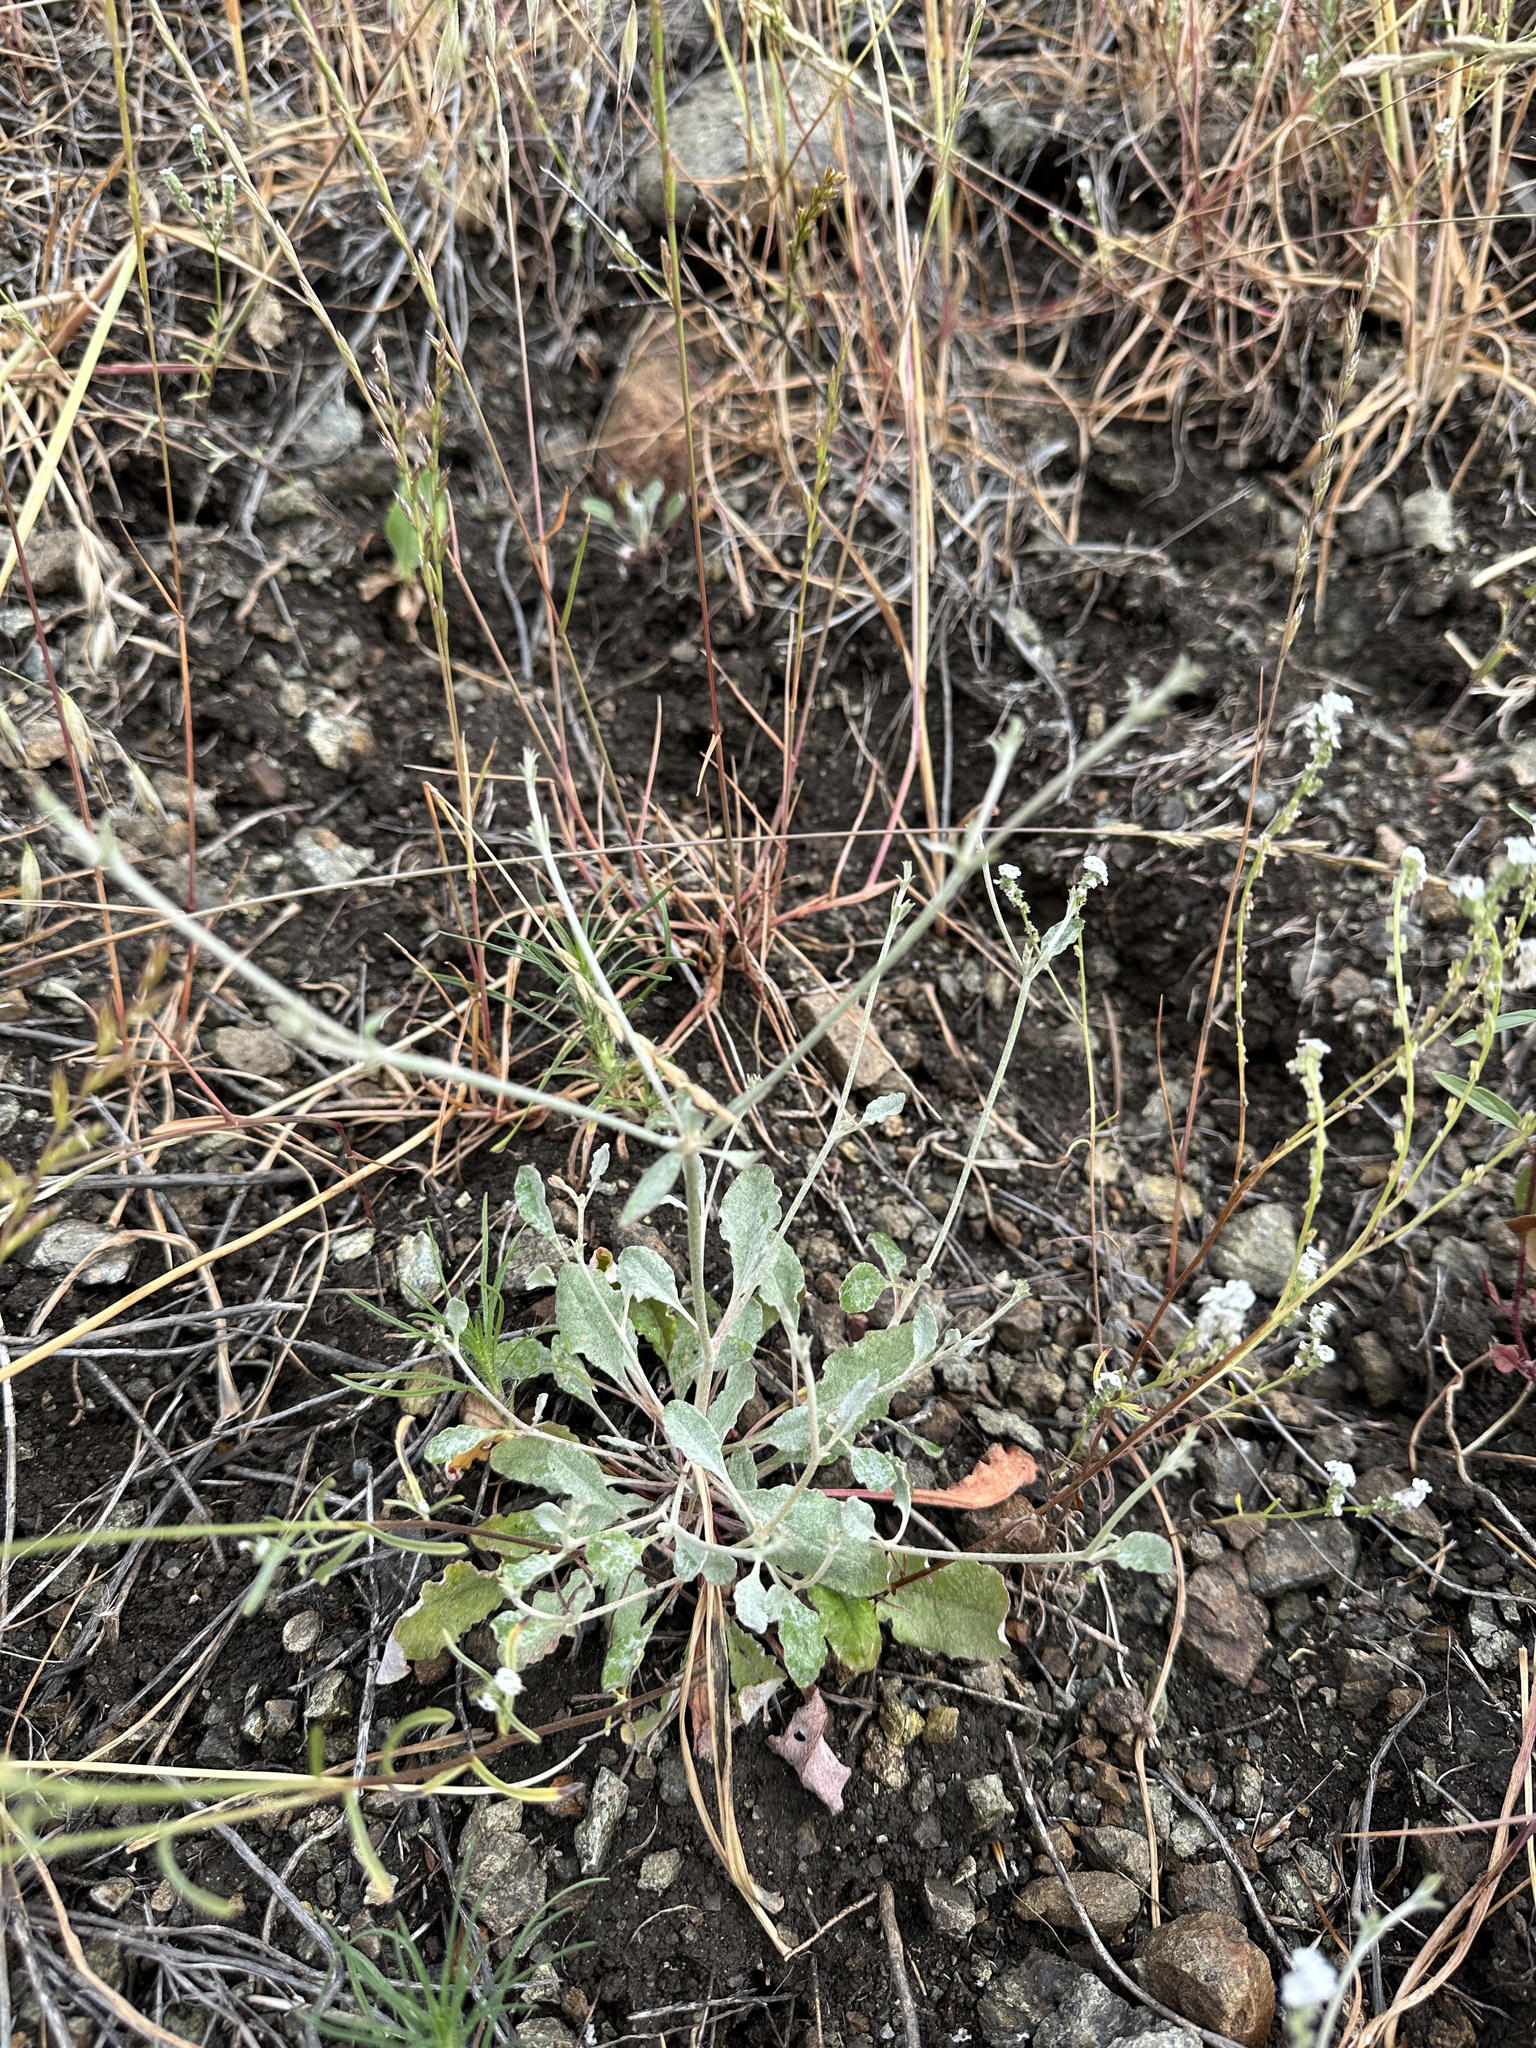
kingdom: Plantae
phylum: Tracheophyta
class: Magnoliopsida
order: Asterales
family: Asteraceae
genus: Lessingia
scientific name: Lessingia micradenia
